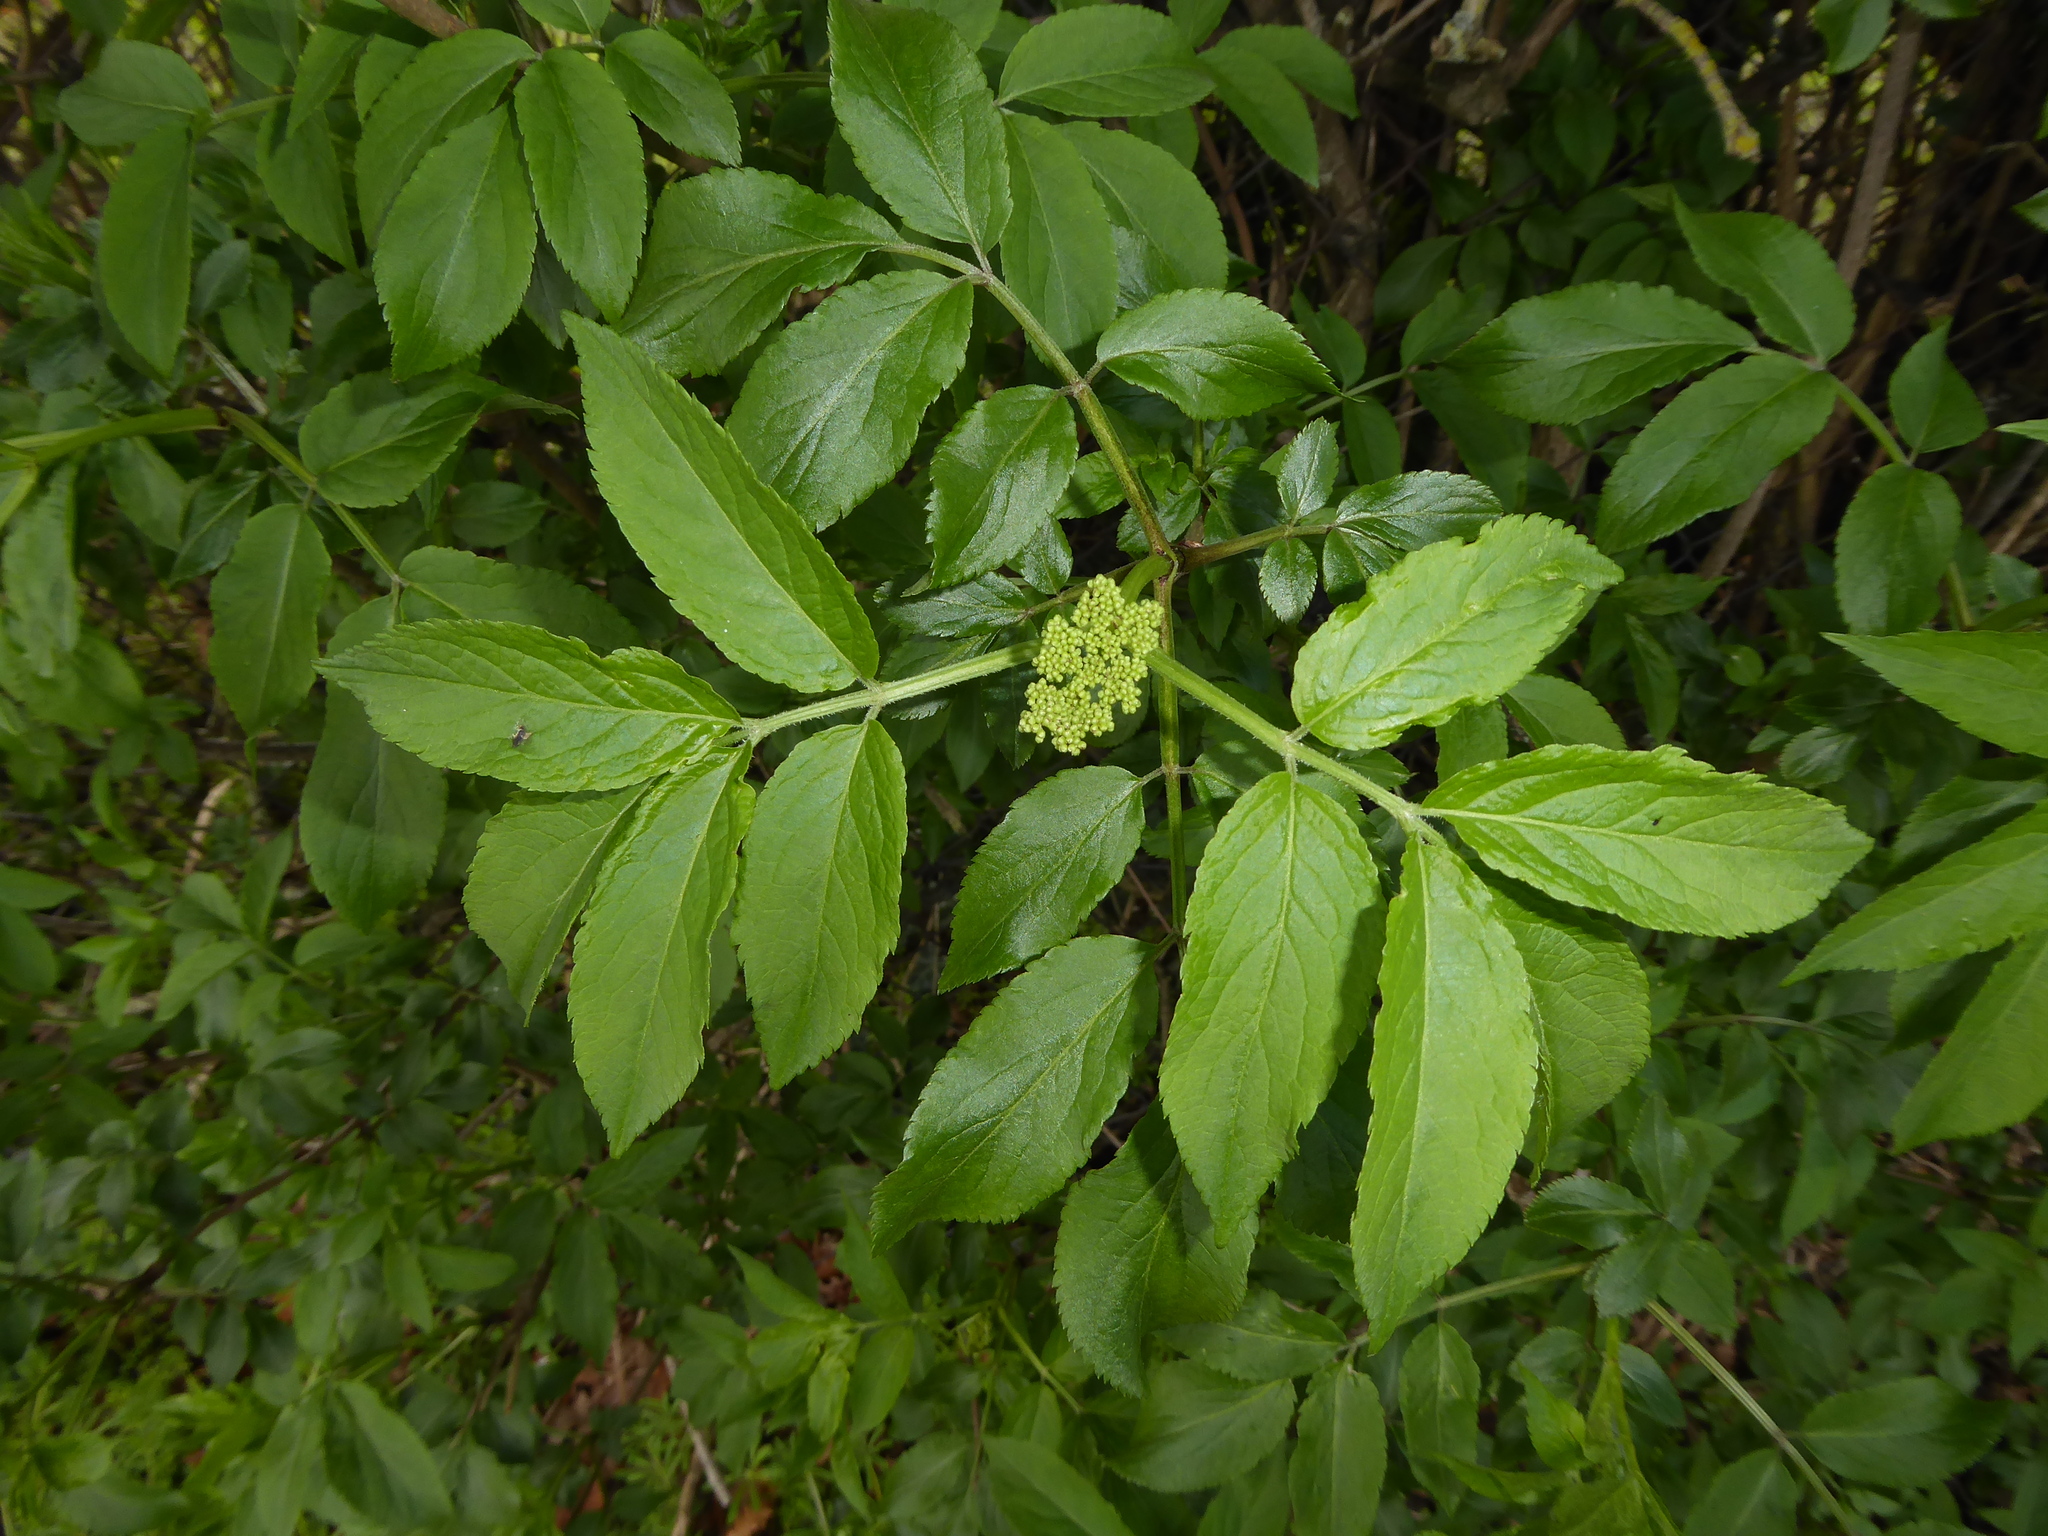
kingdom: Plantae
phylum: Tracheophyta
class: Magnoliopsida
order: Dipsacales
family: Viburnaceae
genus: Sambucus
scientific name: Sambucus nigra
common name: Elder
